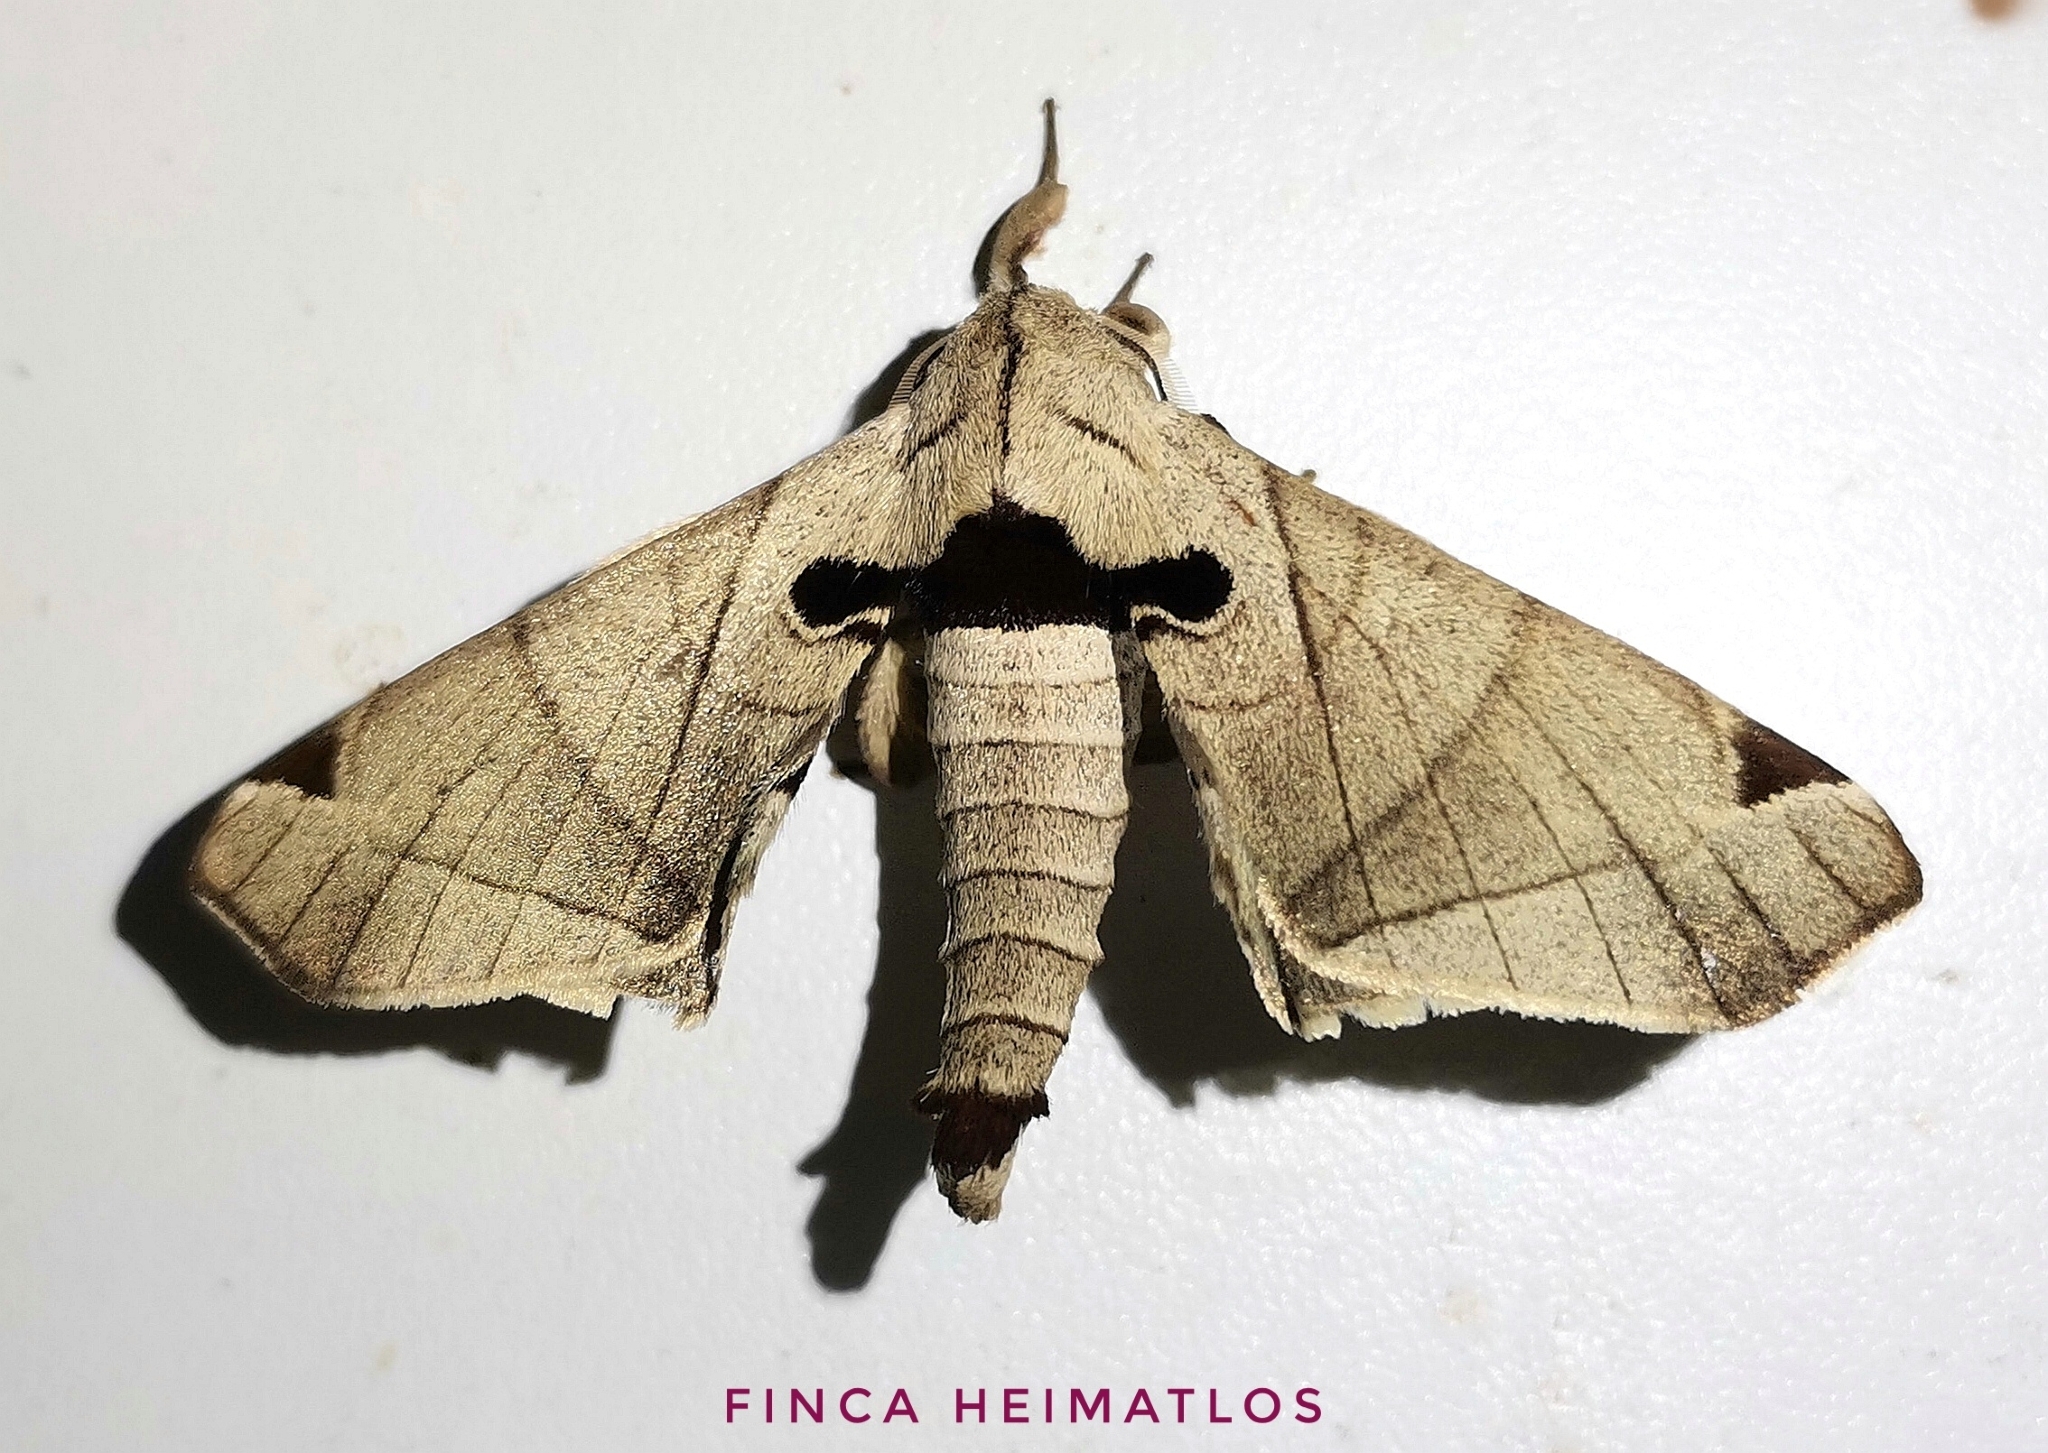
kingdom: Animalia
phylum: Arthropoda
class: Insecta
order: Lepidoptera
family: Apatelodidae
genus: Hygrochroa
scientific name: Hygrochroa Apatelodes pandara
